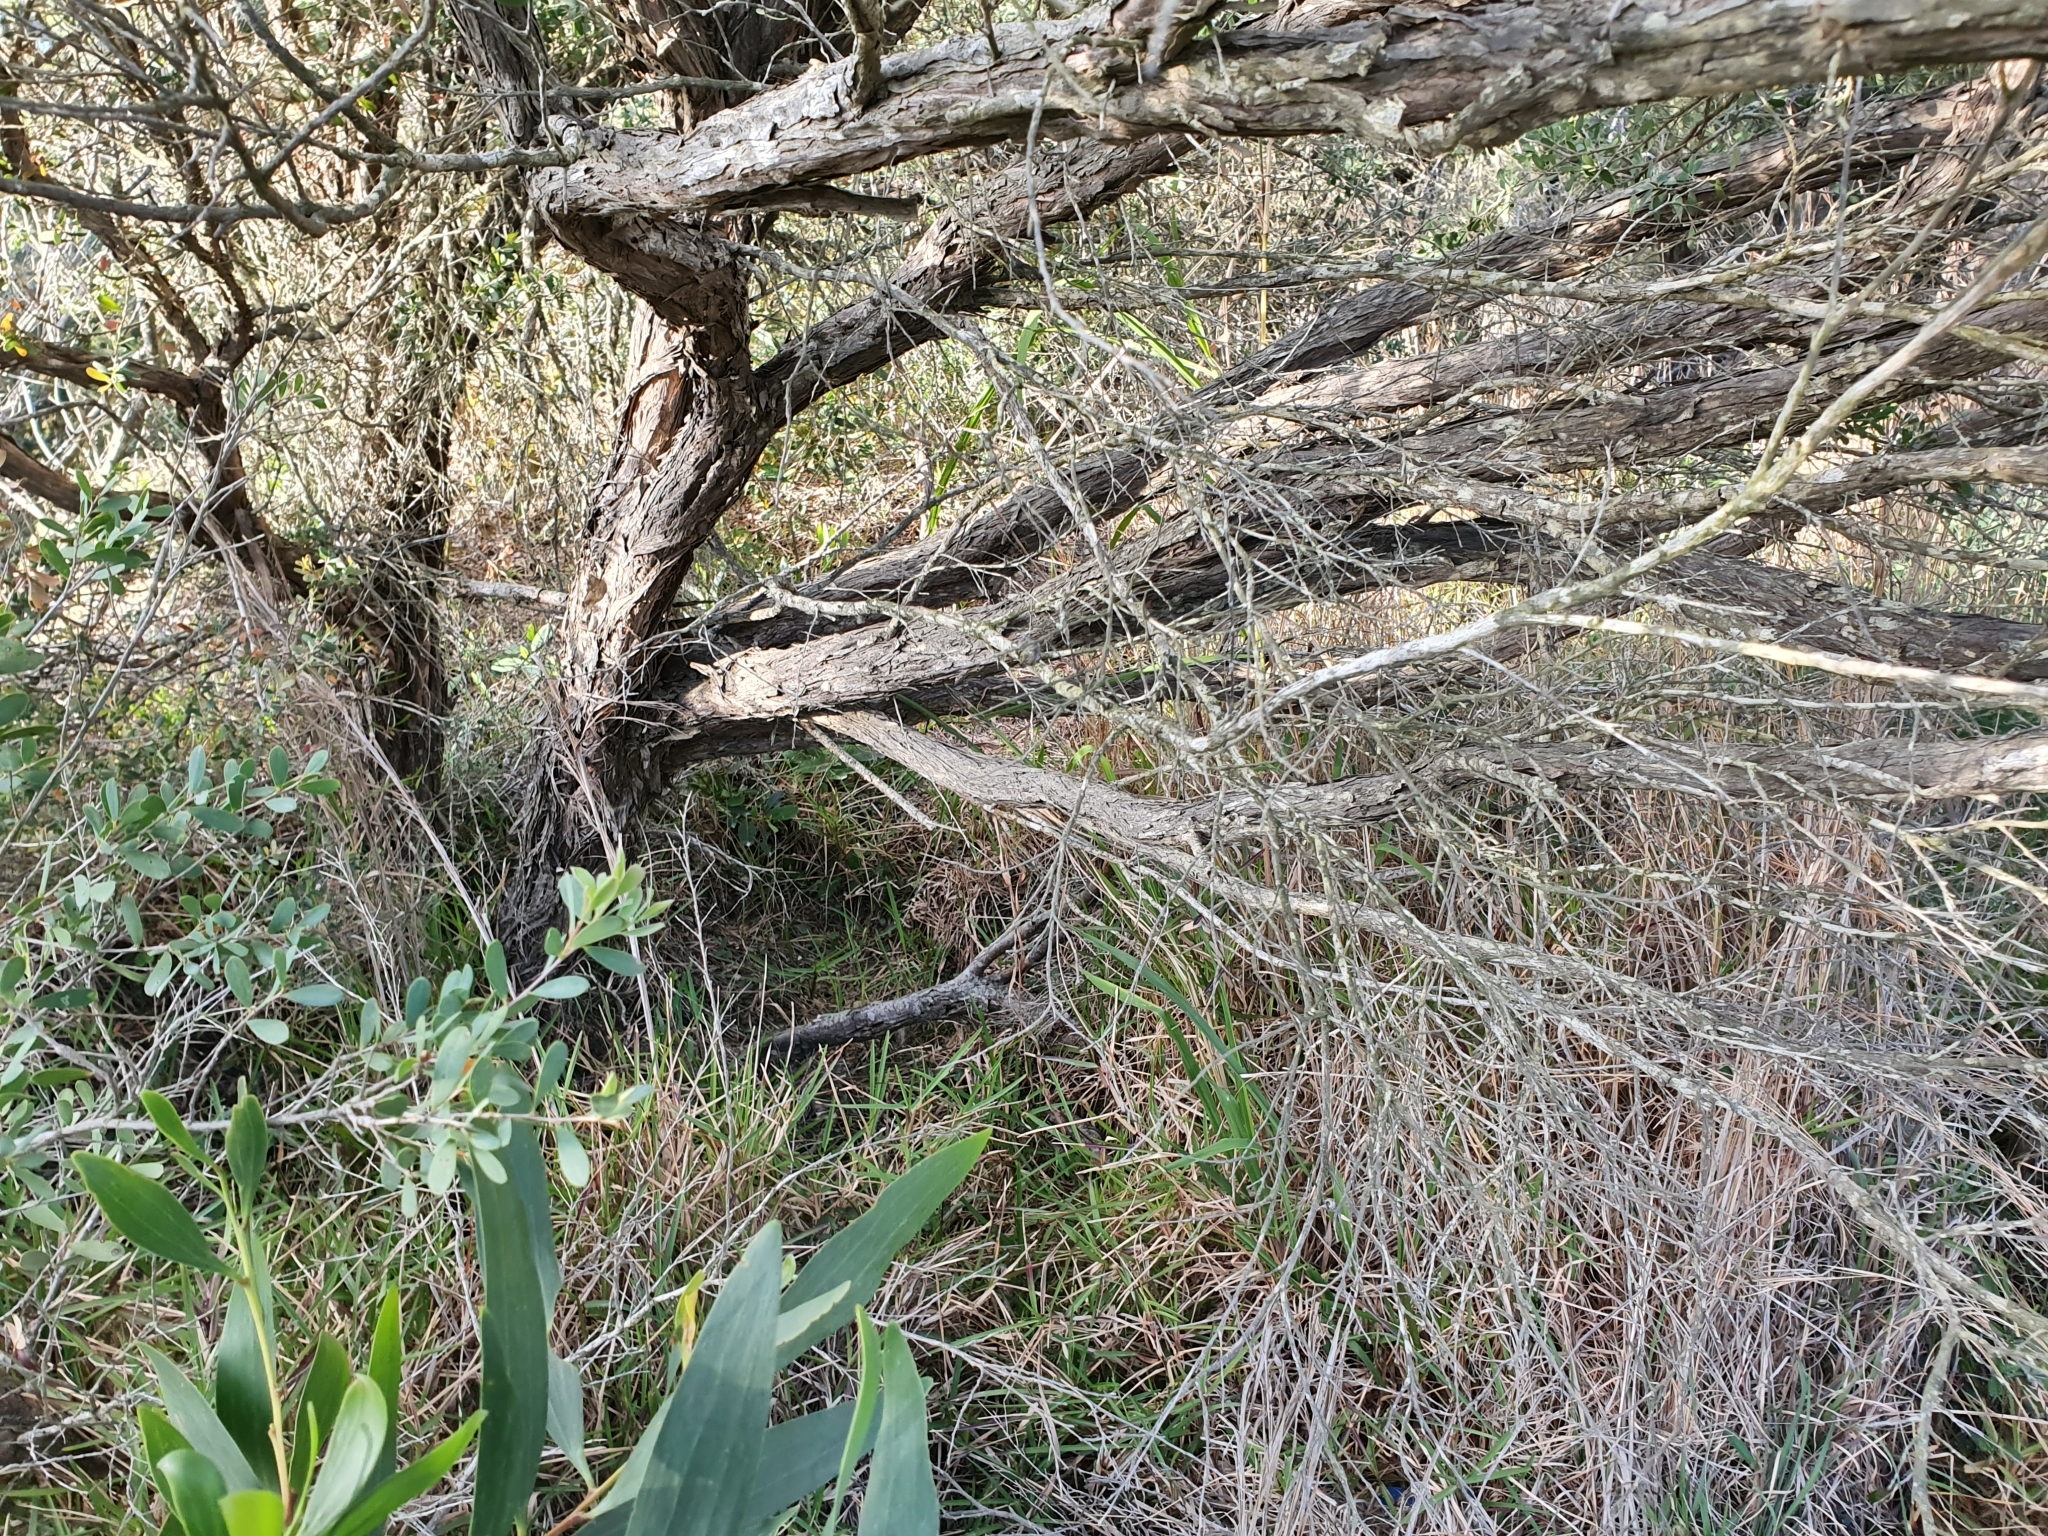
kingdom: Plantae
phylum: Tracheophyta
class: Magnoliopsida
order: Myrtales
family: Myrtaceae
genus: Leptospermum
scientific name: Leptospermum laevigatum
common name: Australian teatree
